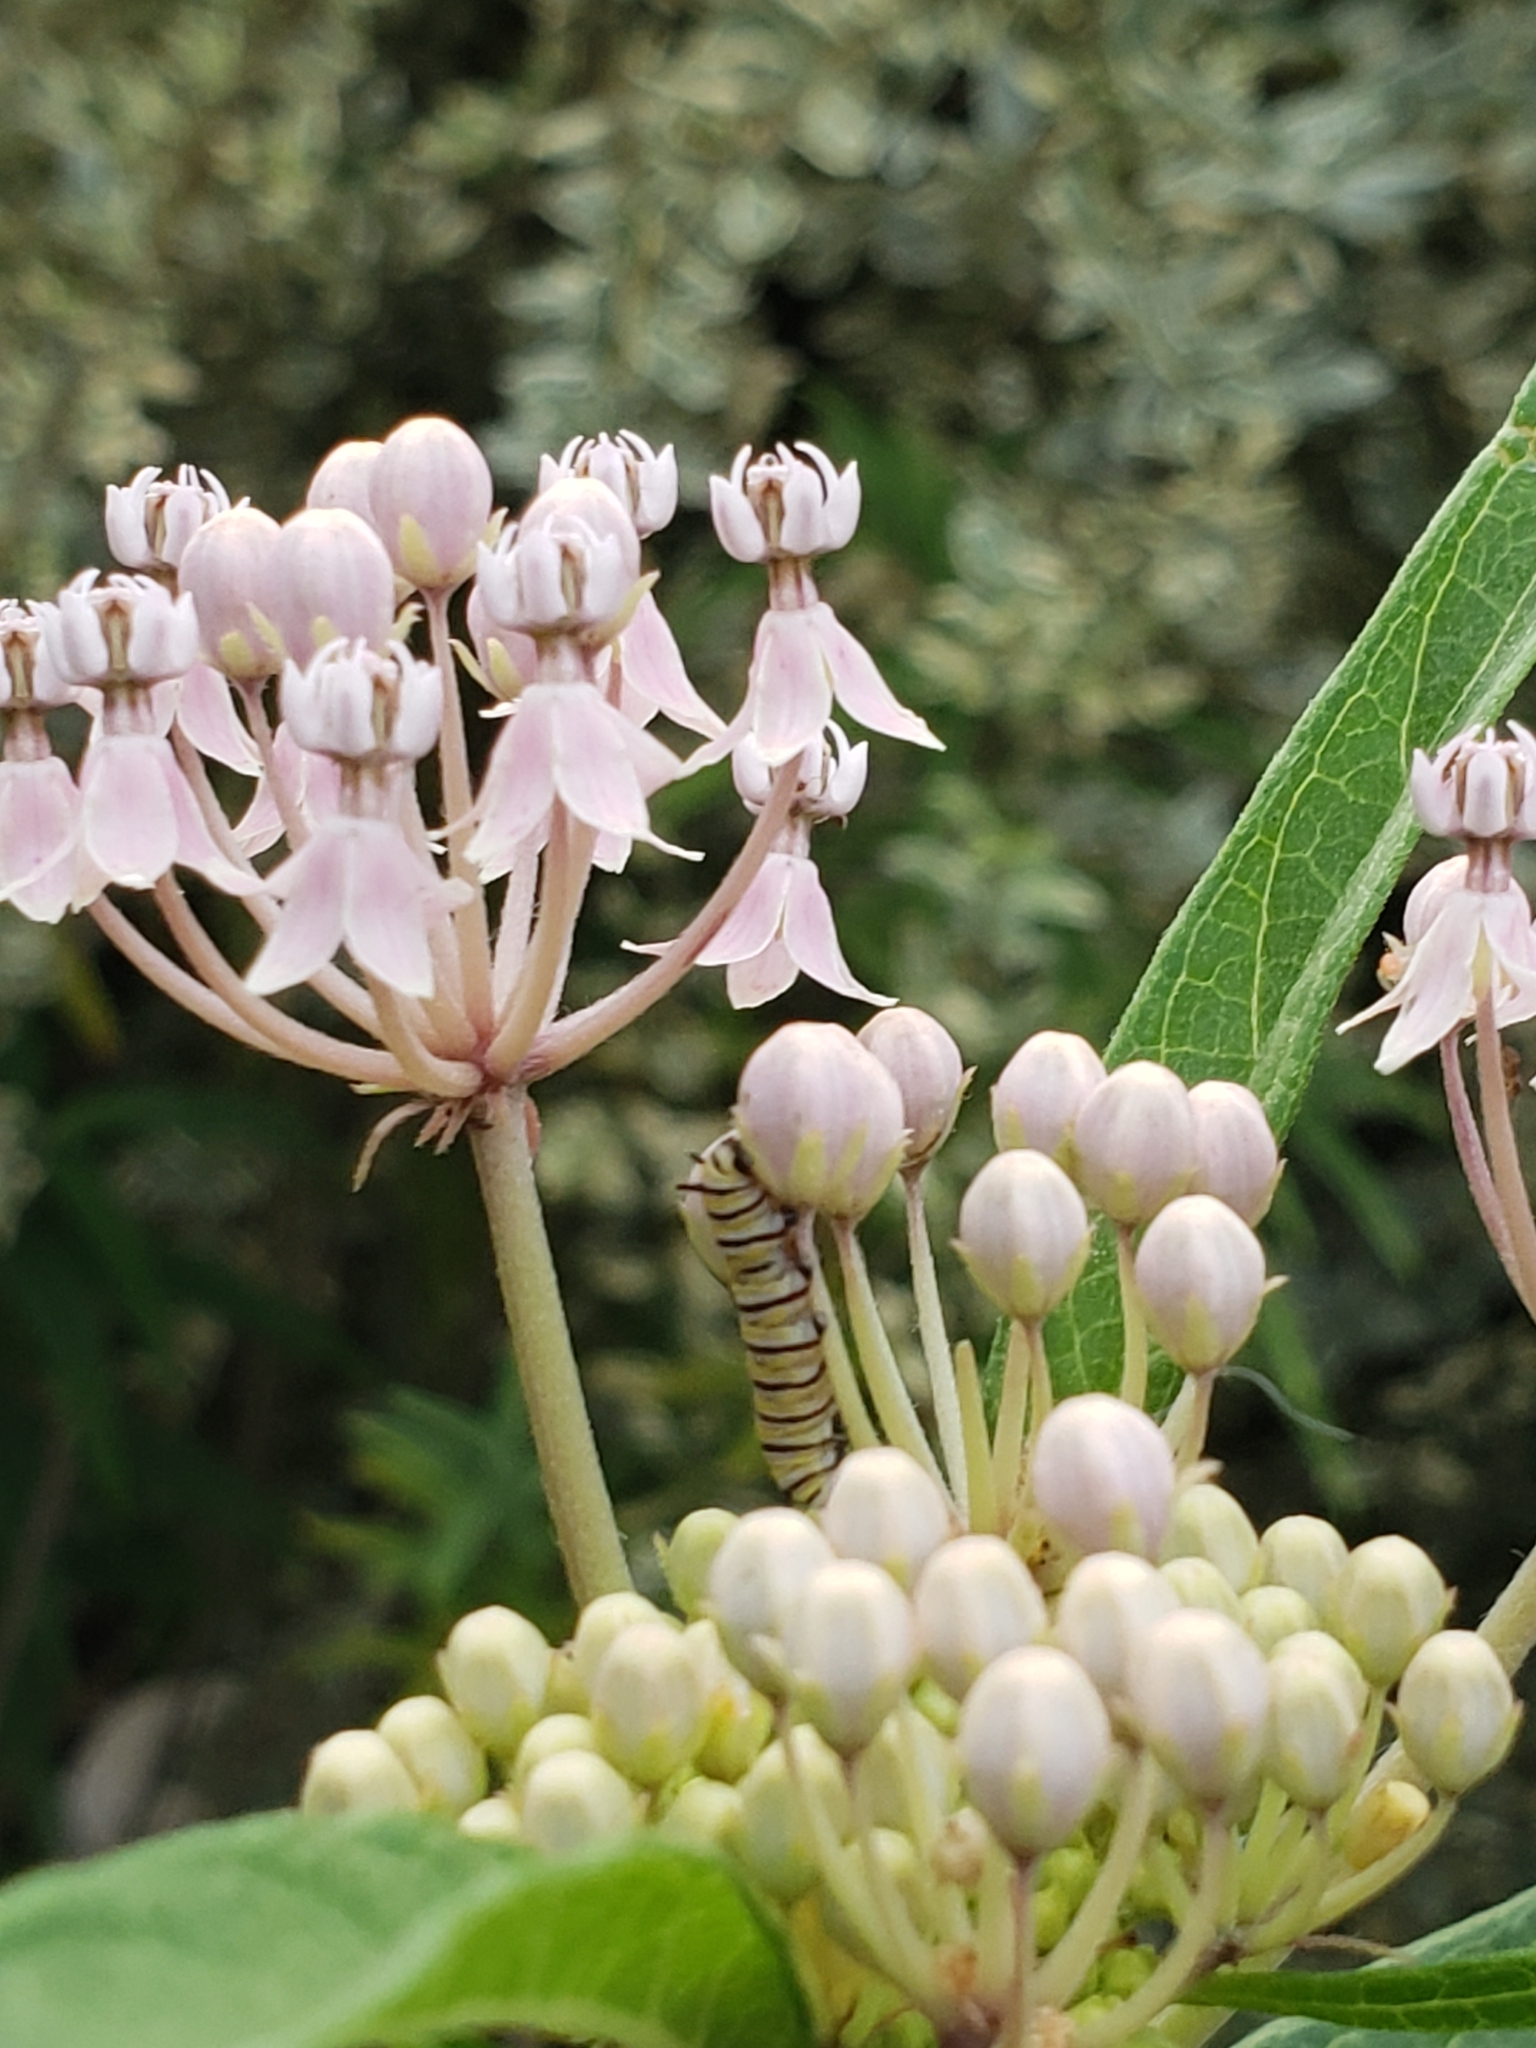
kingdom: Animalia
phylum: Arthropoda
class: Insecta
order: Lepidoptera
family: Nymphalidae
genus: Danaus
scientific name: Danaus plexippus
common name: Monarch
